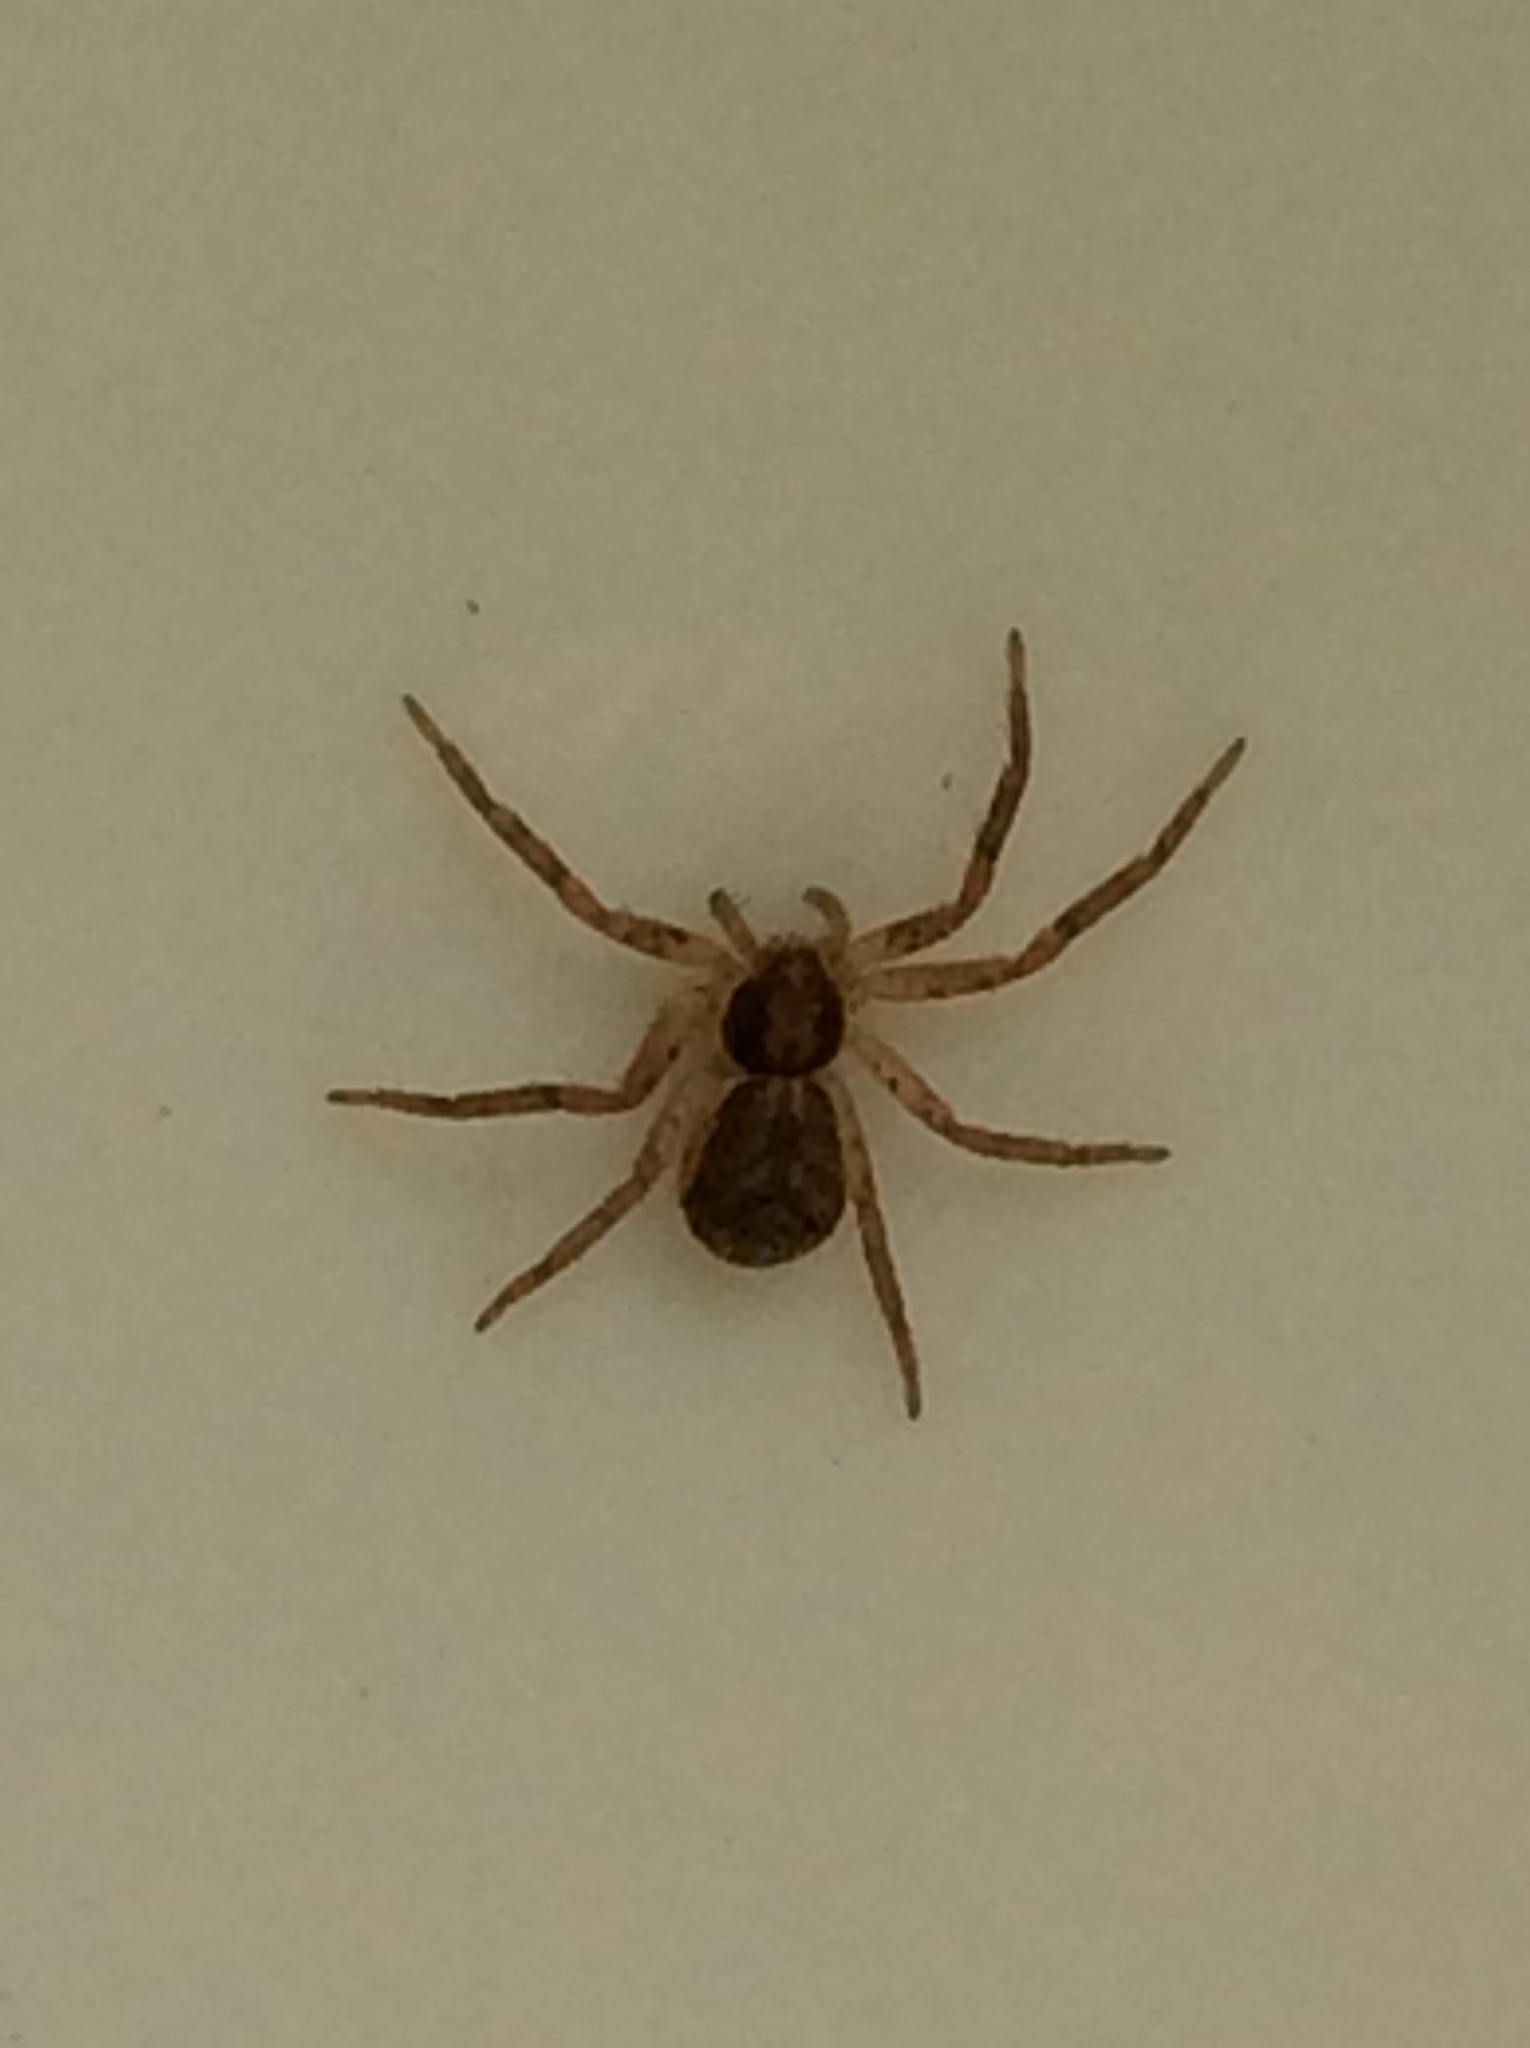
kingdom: Animalia
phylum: Arthropoda
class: Arachnida
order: Araneae
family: Philodromidae
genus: Philodromus
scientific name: Philodromus dispar
